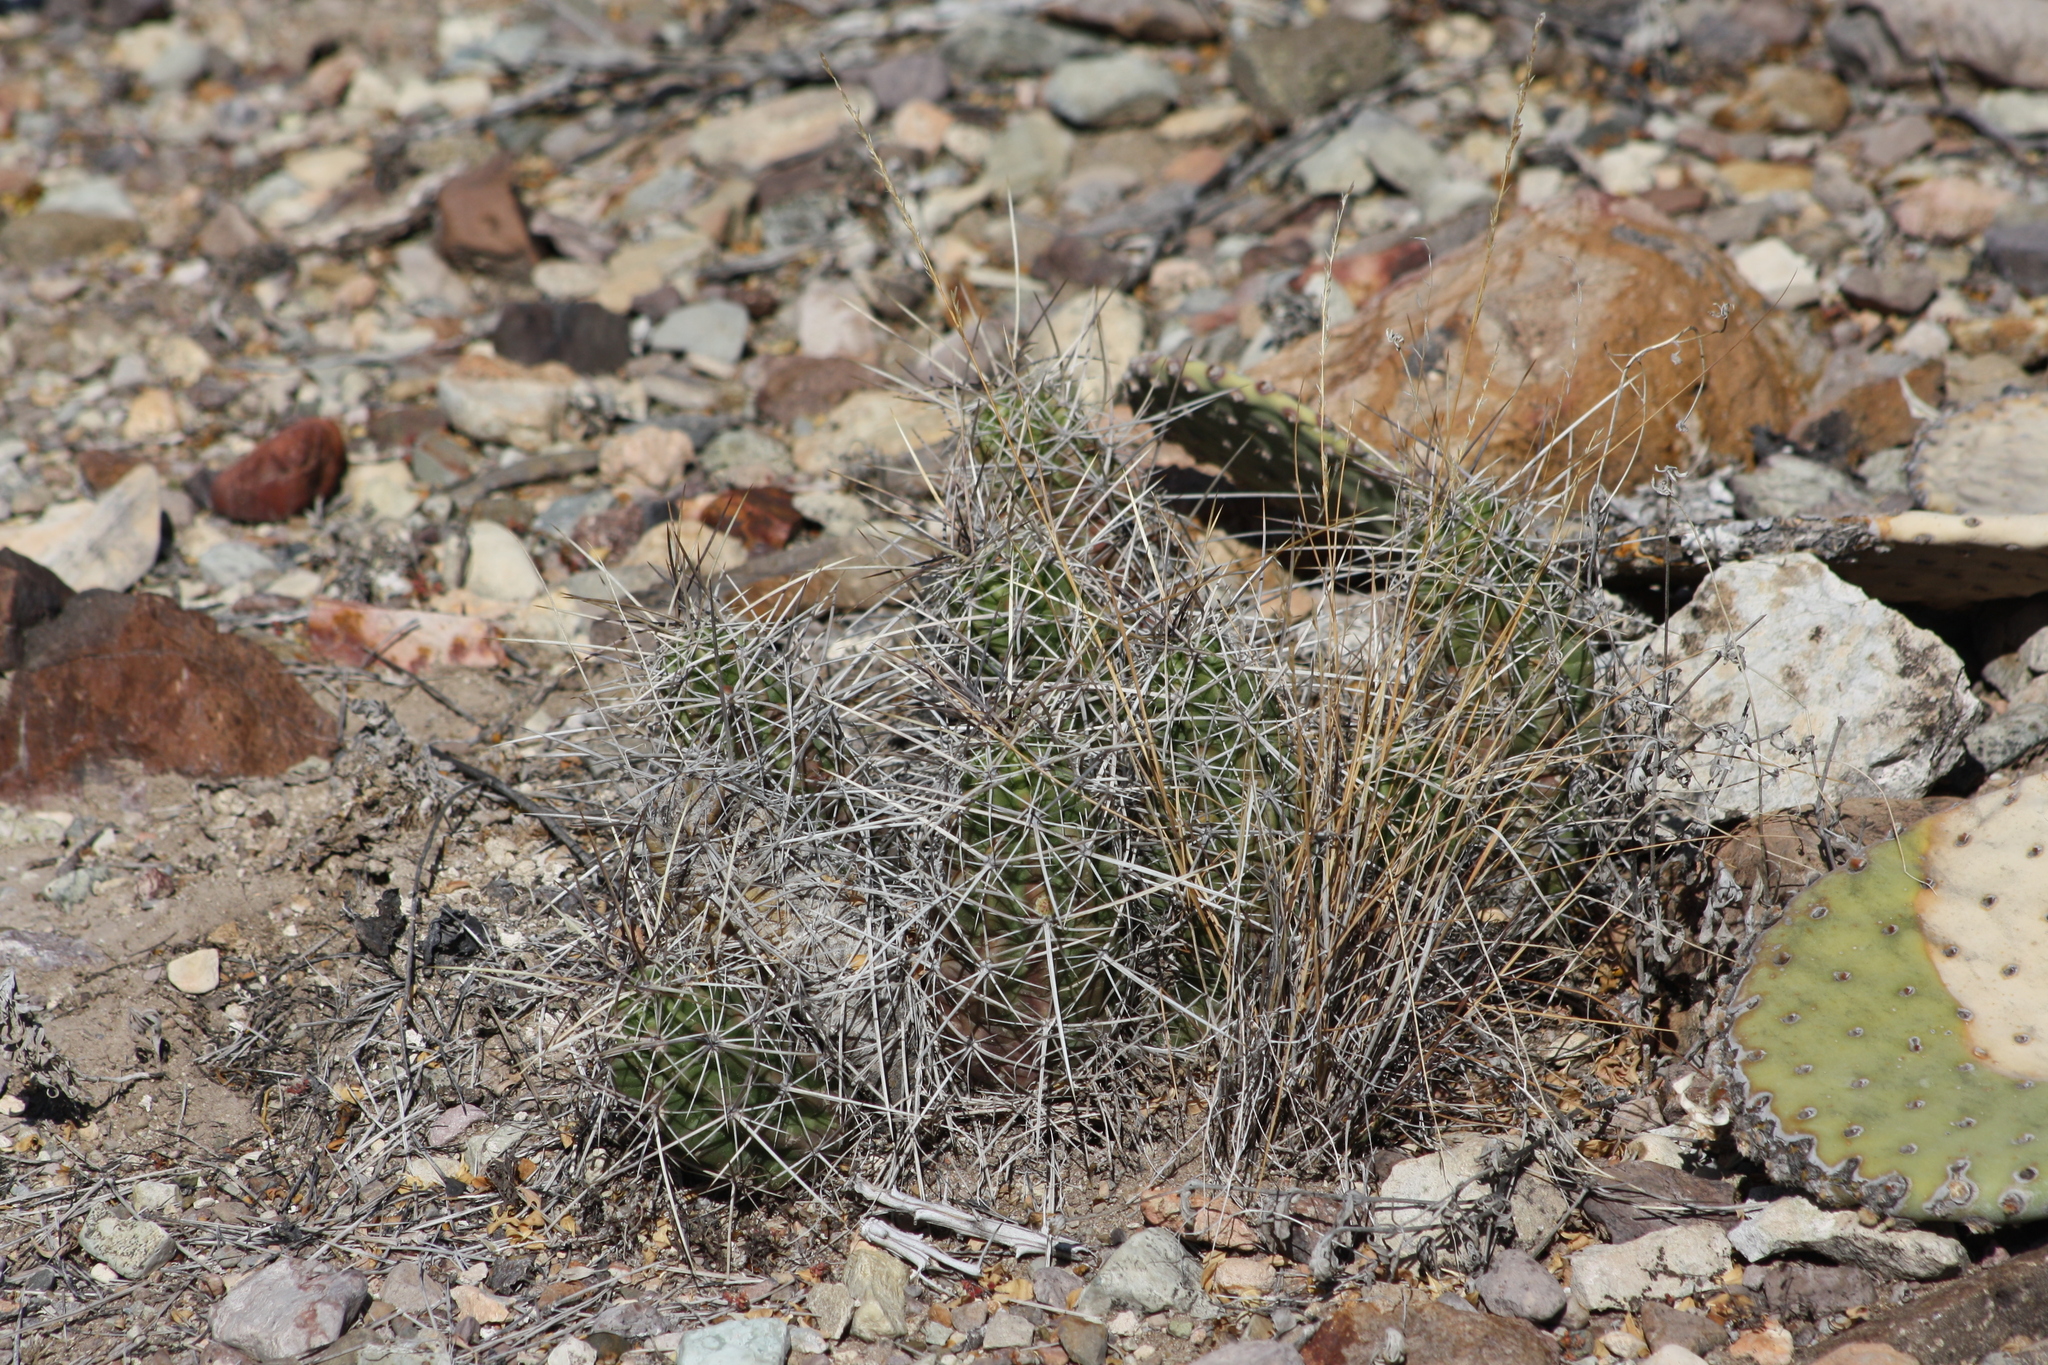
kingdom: Plantae
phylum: Tracheophyta
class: Magnoliopsida
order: Caryophyllales
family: Cactaceae
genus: Echinocereus
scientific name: Echinocereus enneacanthus
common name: Pitaya
